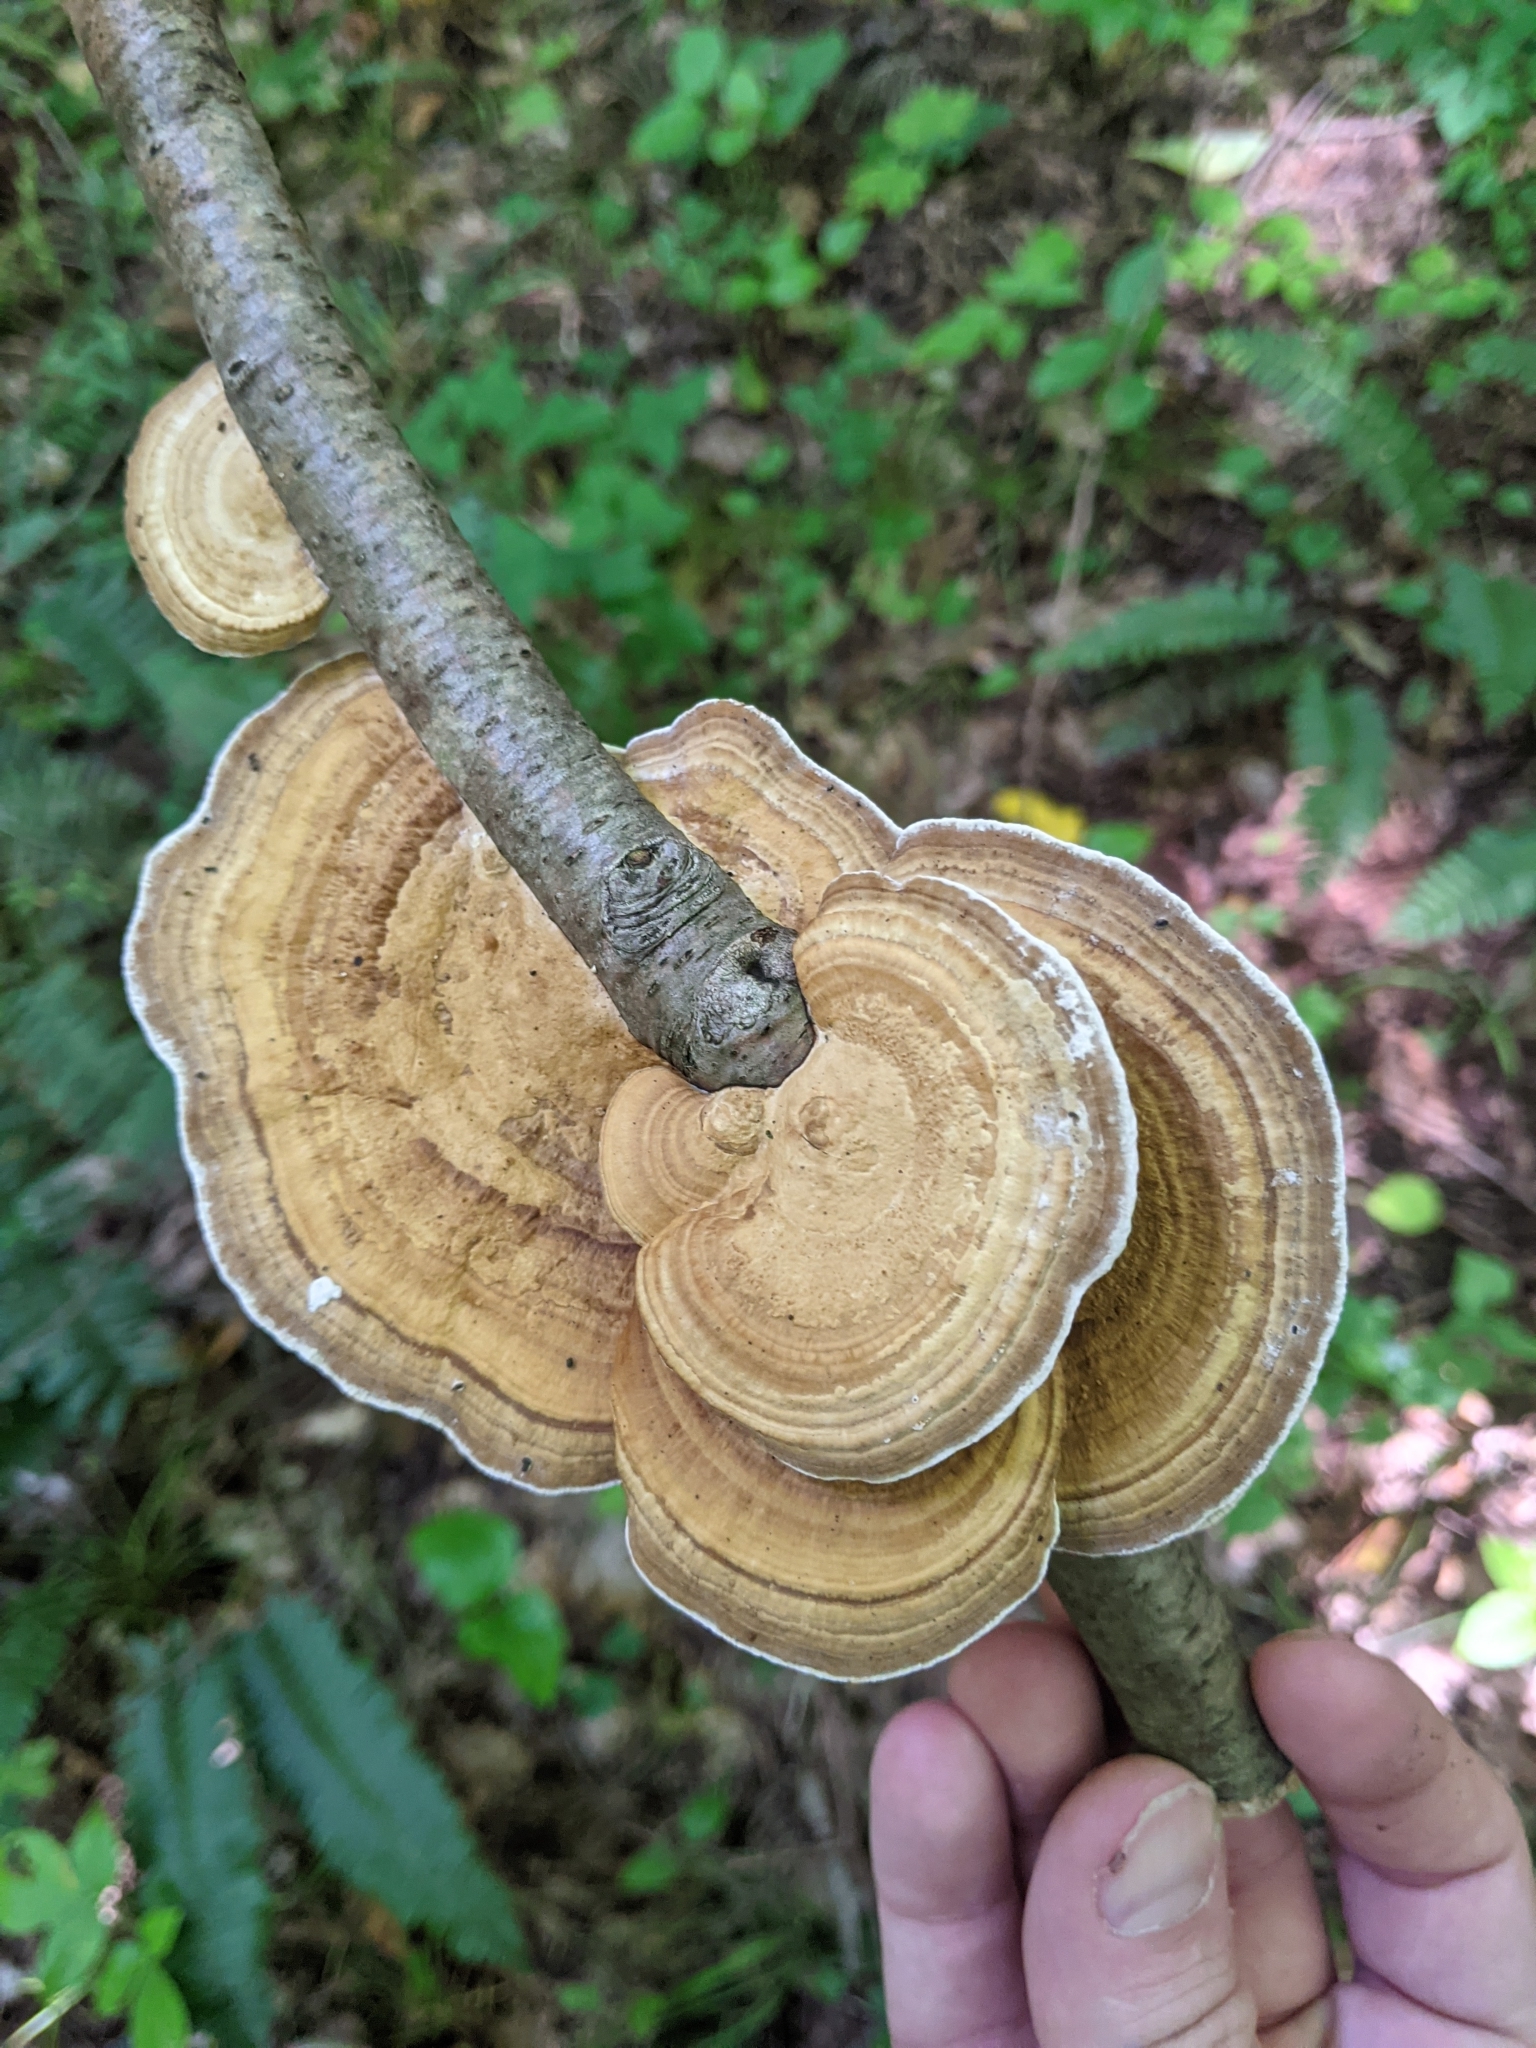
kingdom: Fungi
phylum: Basidiomycota
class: Agaricomycetes
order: Polyporales
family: Polyporaceae
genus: Daedaleopsis
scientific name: Daedaleopsis confragosa
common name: Blushing bracket
